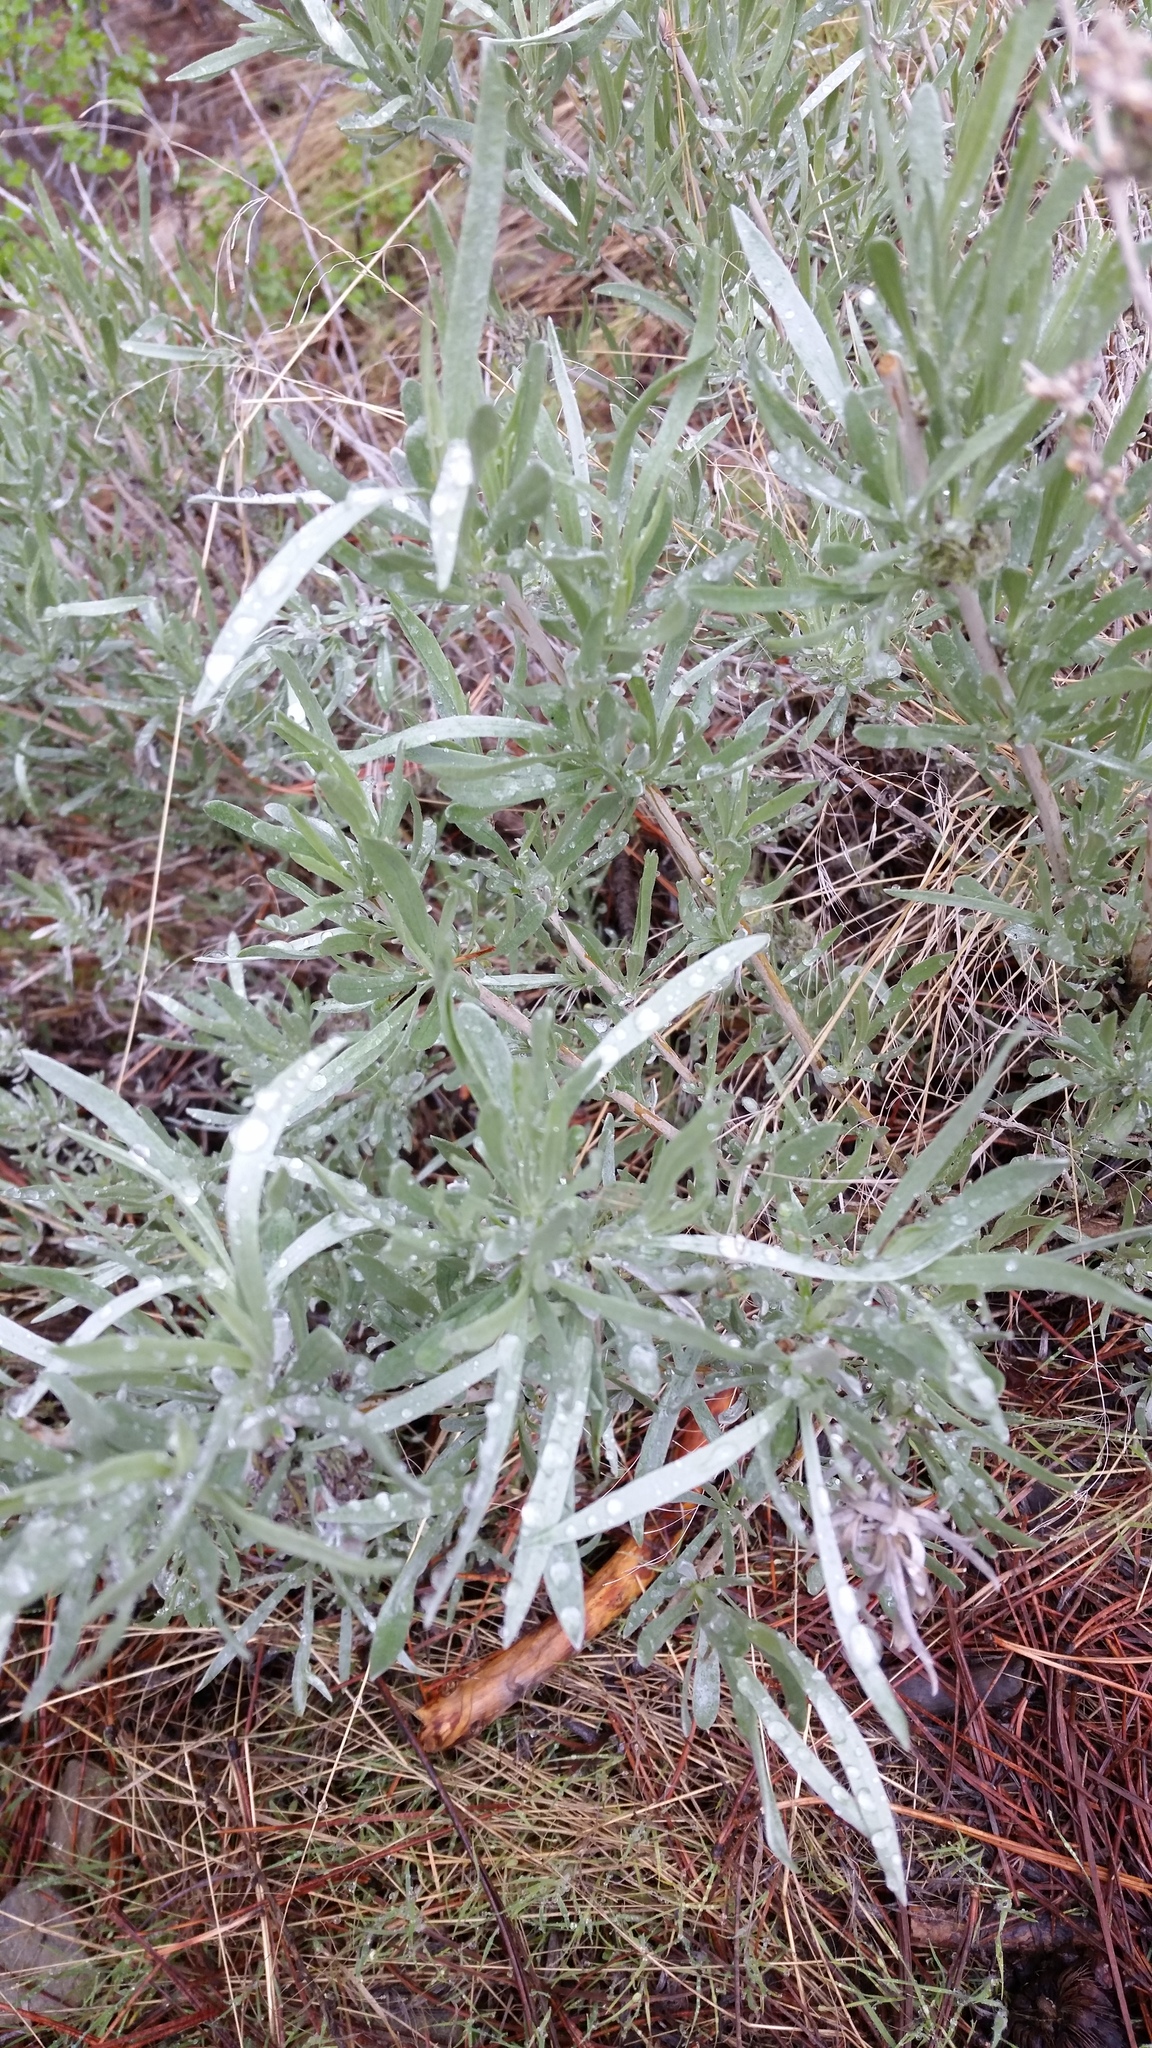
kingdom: Plantae
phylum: Tracheophyta
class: Magnoliopsida
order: Asterales
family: Asteraceae
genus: Artemisia
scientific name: Artemisia cana
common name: Silver sagebrush
